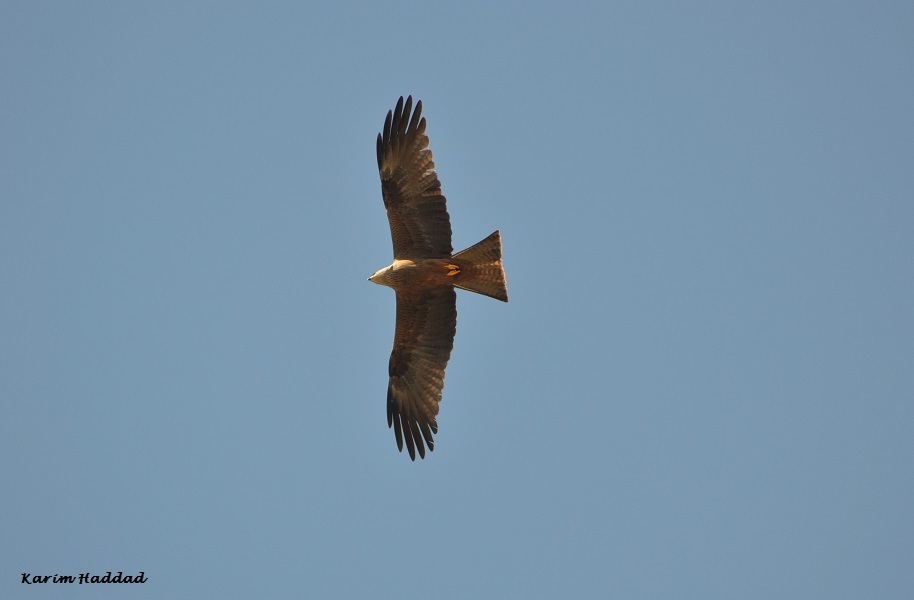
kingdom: Animalia
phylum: Chordata
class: Aves
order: Accipitriformes
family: Accipitridae
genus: Milvus
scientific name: Milvus migrans
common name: Black kite
